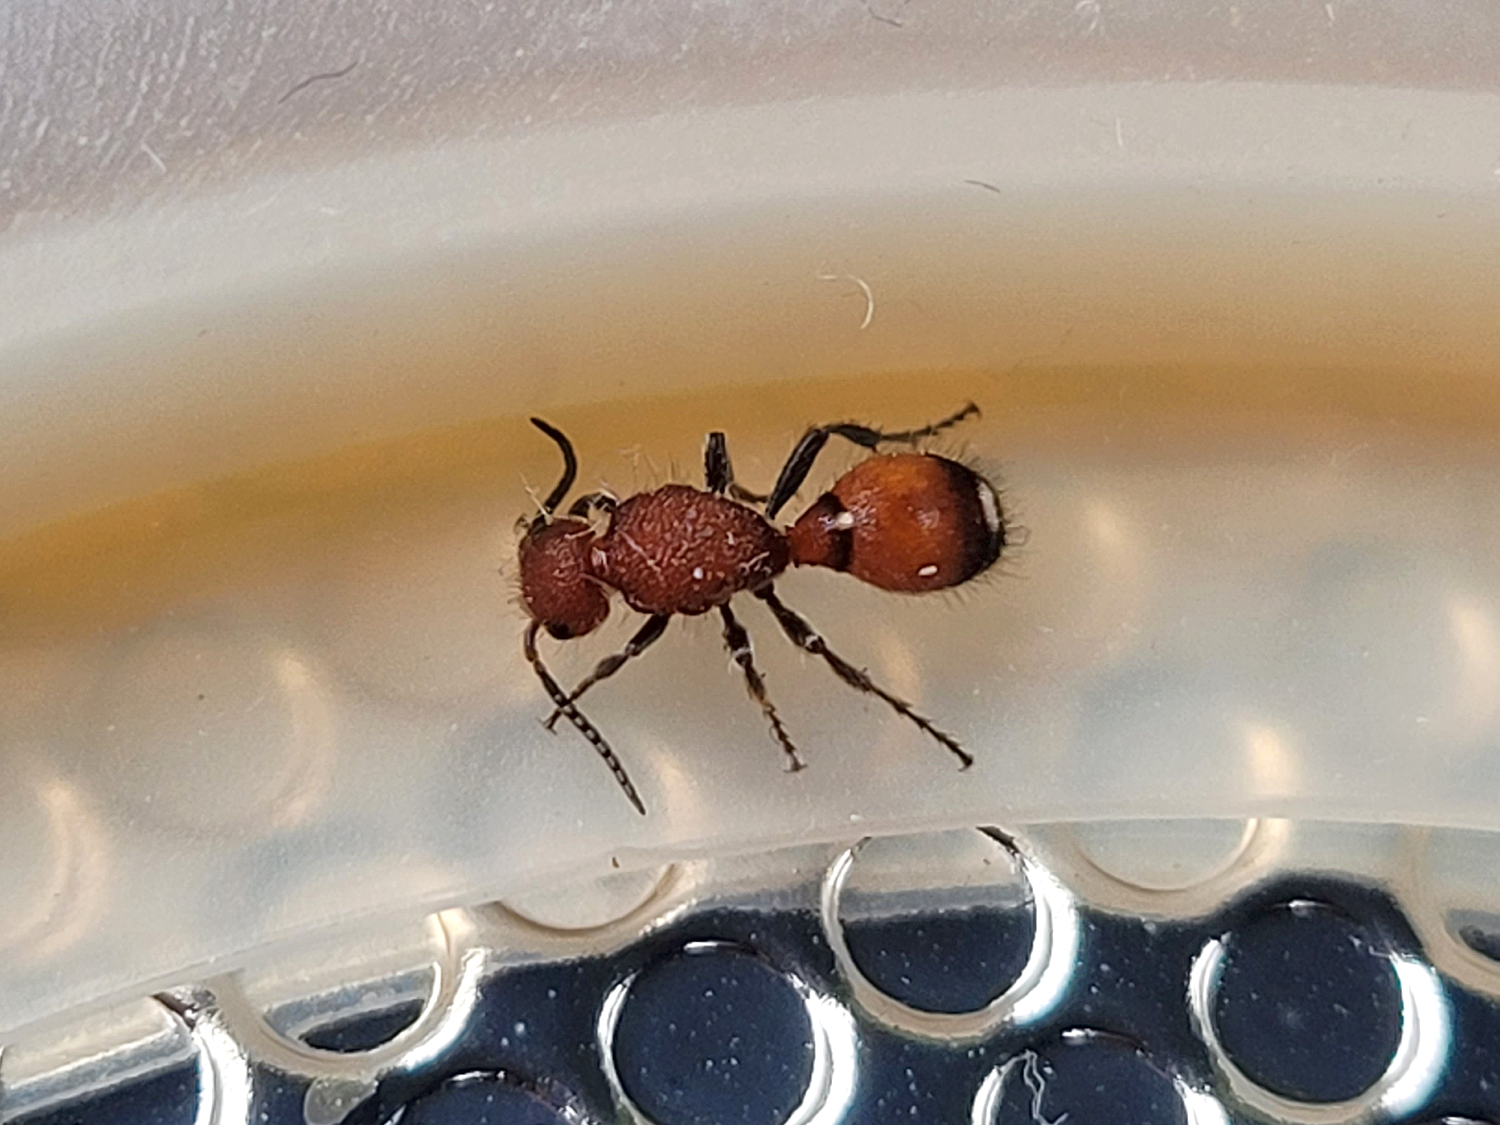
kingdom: Animalia
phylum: Arthropoda
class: Insecta
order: Hymenoptera
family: Mutillidae
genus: Sphaeropthalma
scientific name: Sphaeropthalma
